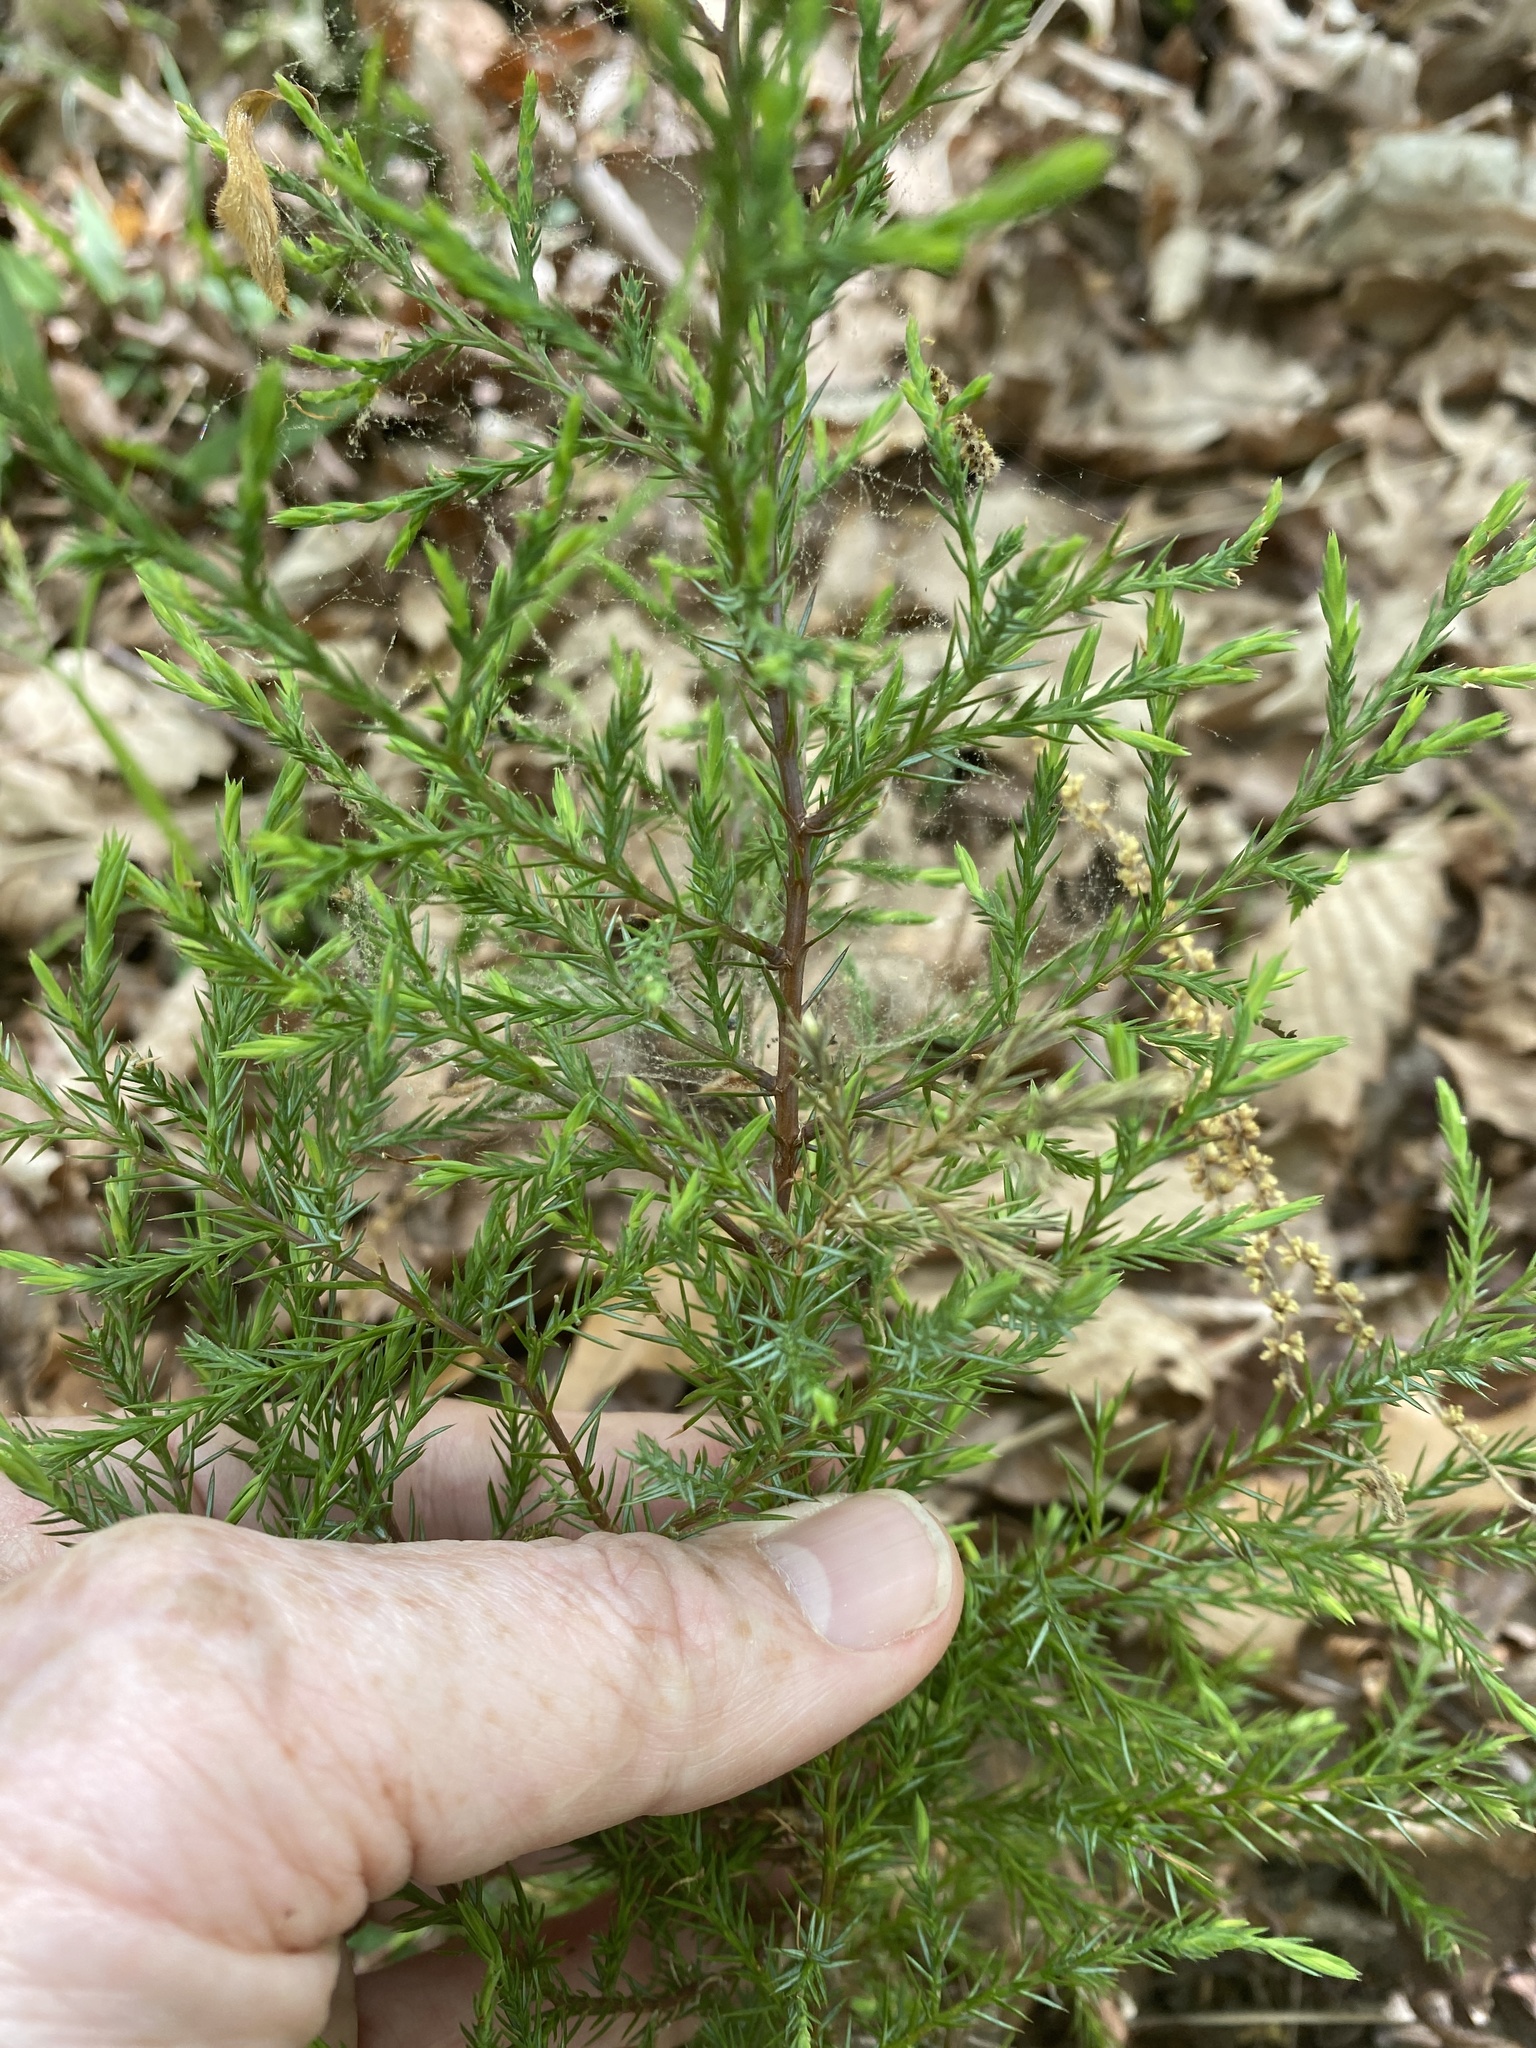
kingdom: Plantae
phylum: Tracheophyta
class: Pinopsida
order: Pinales
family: Cupressaceae
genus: Juniperus
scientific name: Juniperus virginiana
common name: Red juniper
